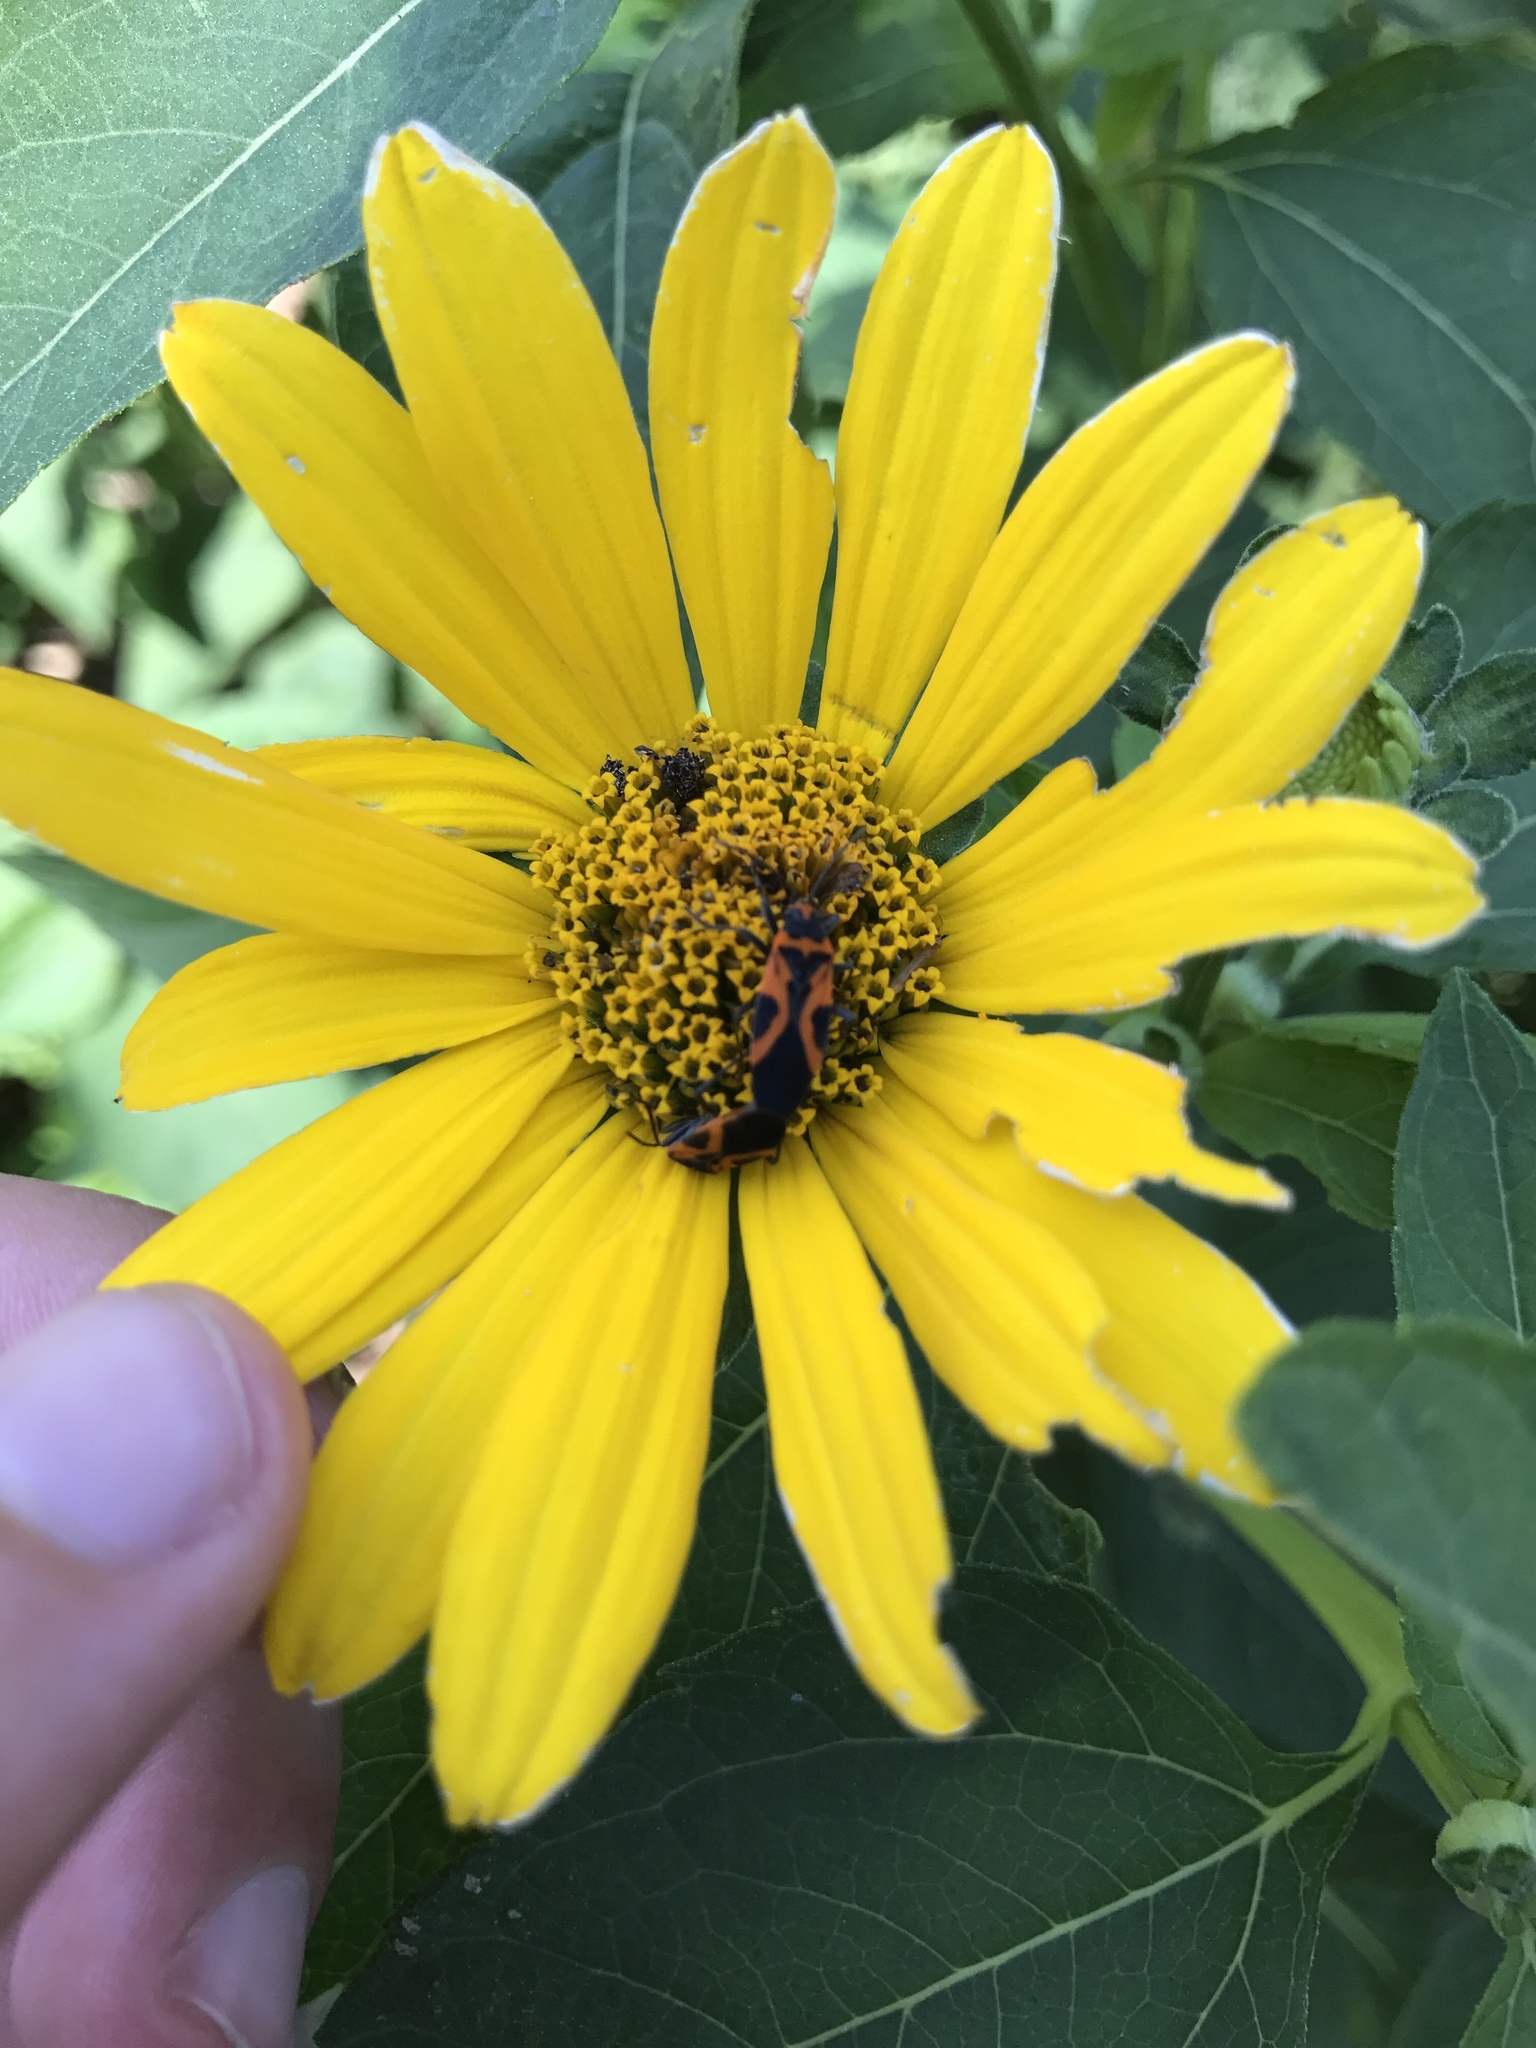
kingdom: Animalia
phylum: Arthropoda
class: Insecta
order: Hemiptera
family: Lygaeidae
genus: Lygaeus
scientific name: Lygaeus turcicus
